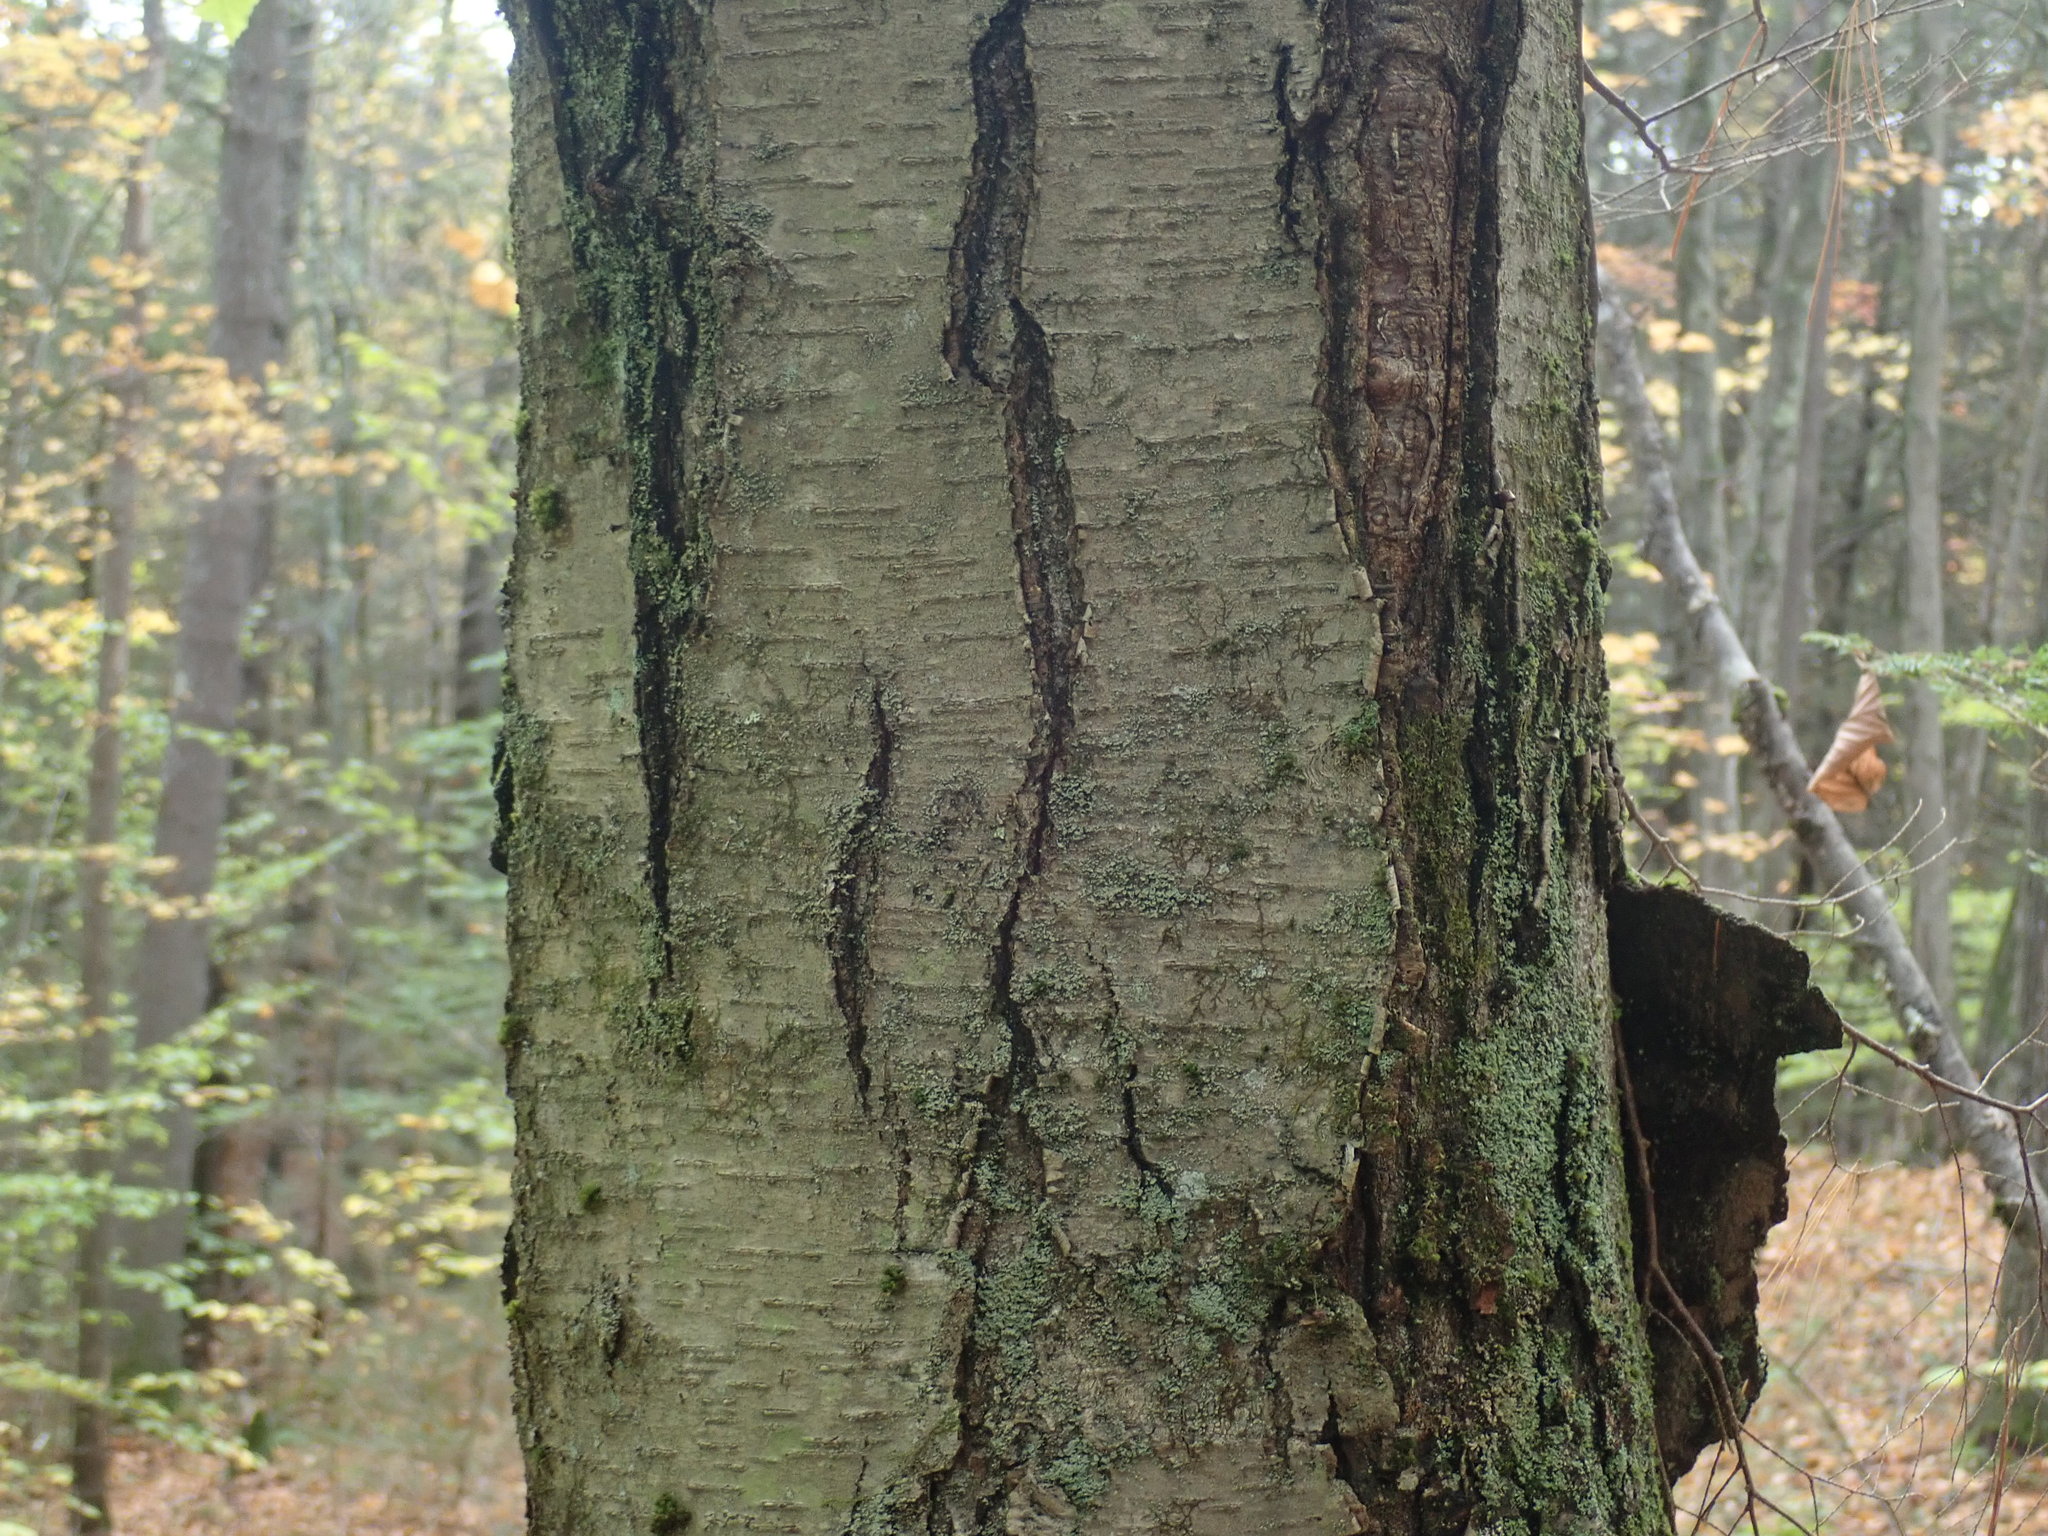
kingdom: Plantae
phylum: Tracheophyta
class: Magnoliopsida
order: Fagales
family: Betulaceae
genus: Betula
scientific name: Betula lenta
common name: Black birch
